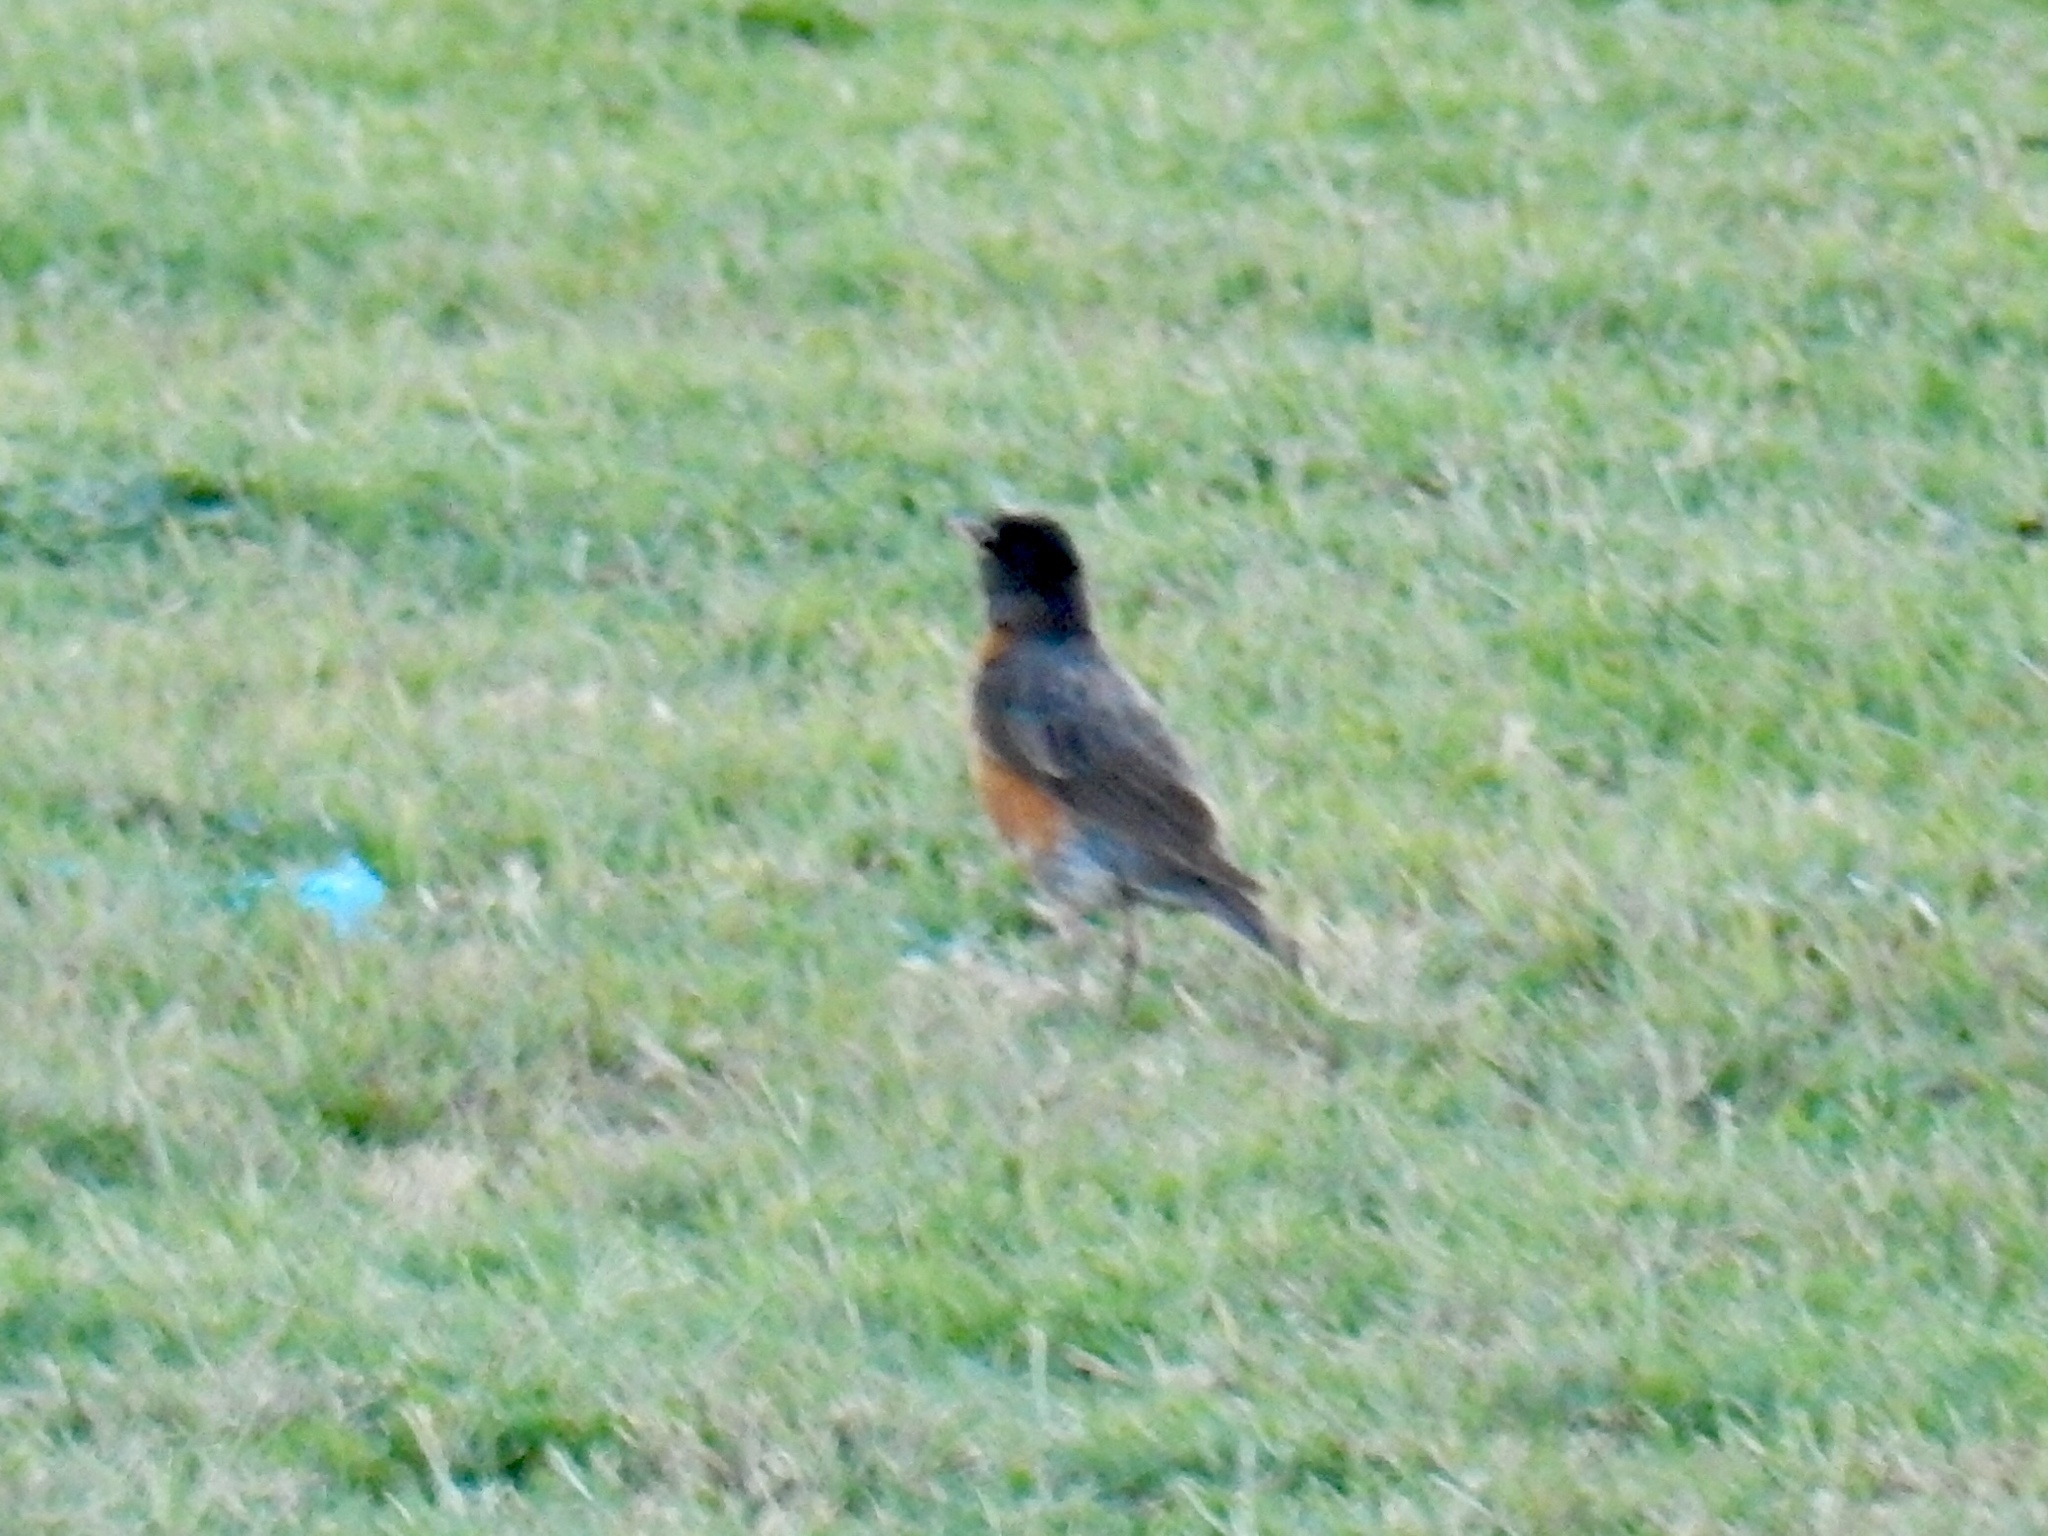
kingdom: Animalia
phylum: Chordata
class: Aves
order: Passeriformes
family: Turdidae
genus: Turdus
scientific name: Turdus migratorius
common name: American robin
